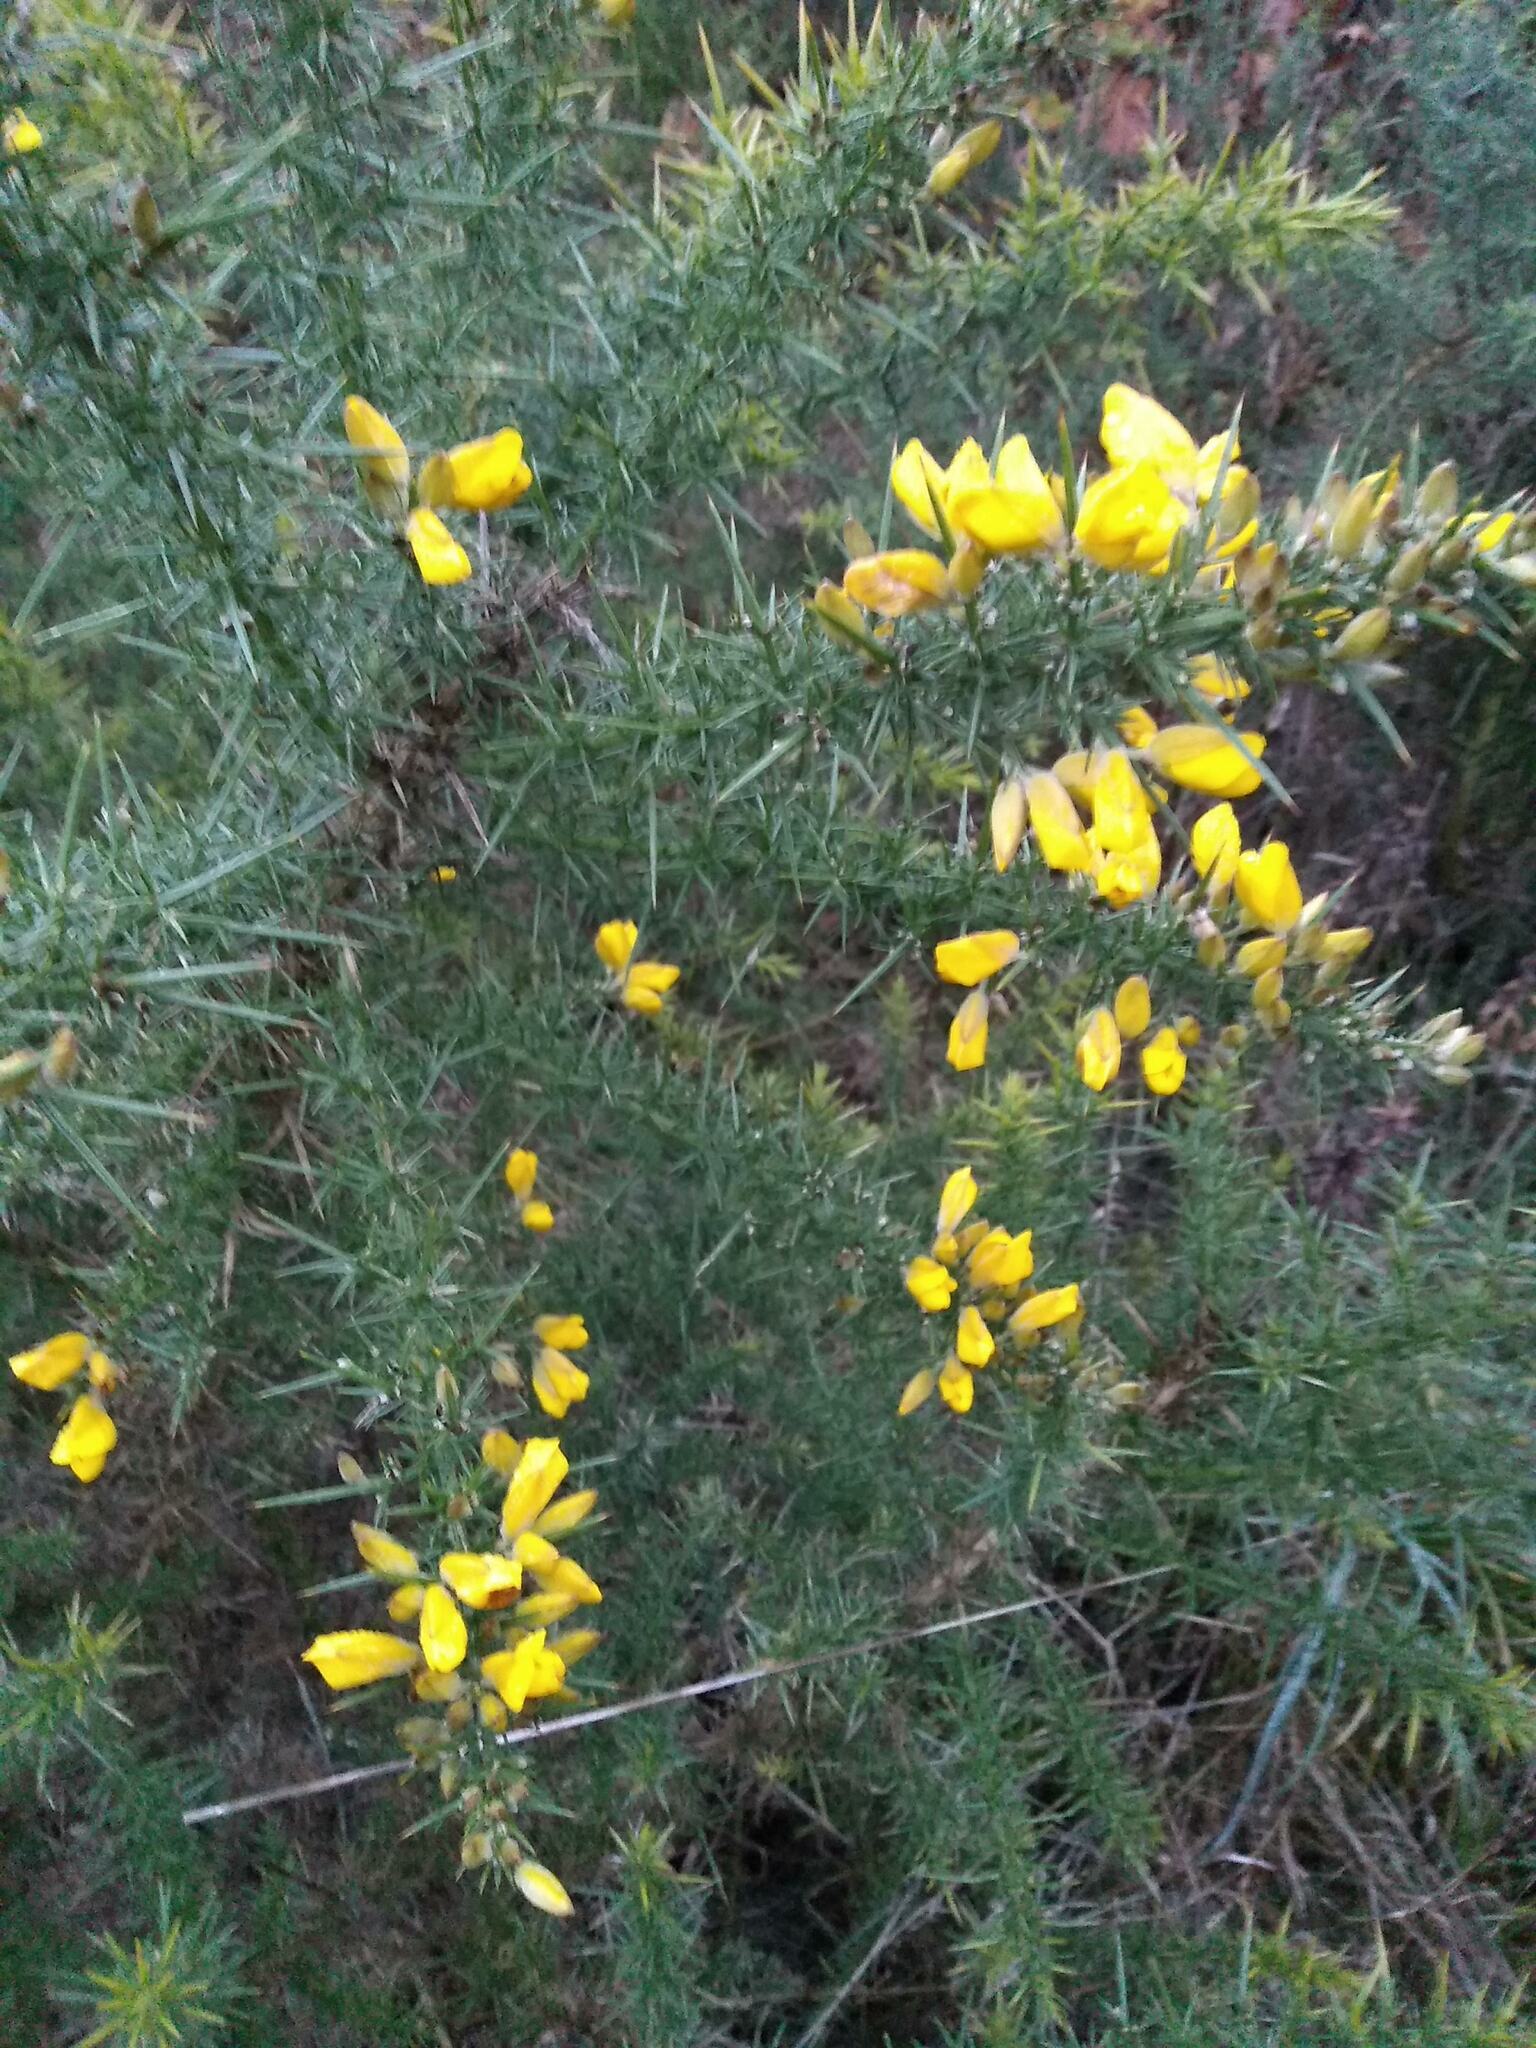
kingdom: Plantae
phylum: Tracheophyta
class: Magnoliopsida
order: Fabales
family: Fabaceae
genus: Ulex
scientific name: Ulex europaeus
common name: Common gorse
